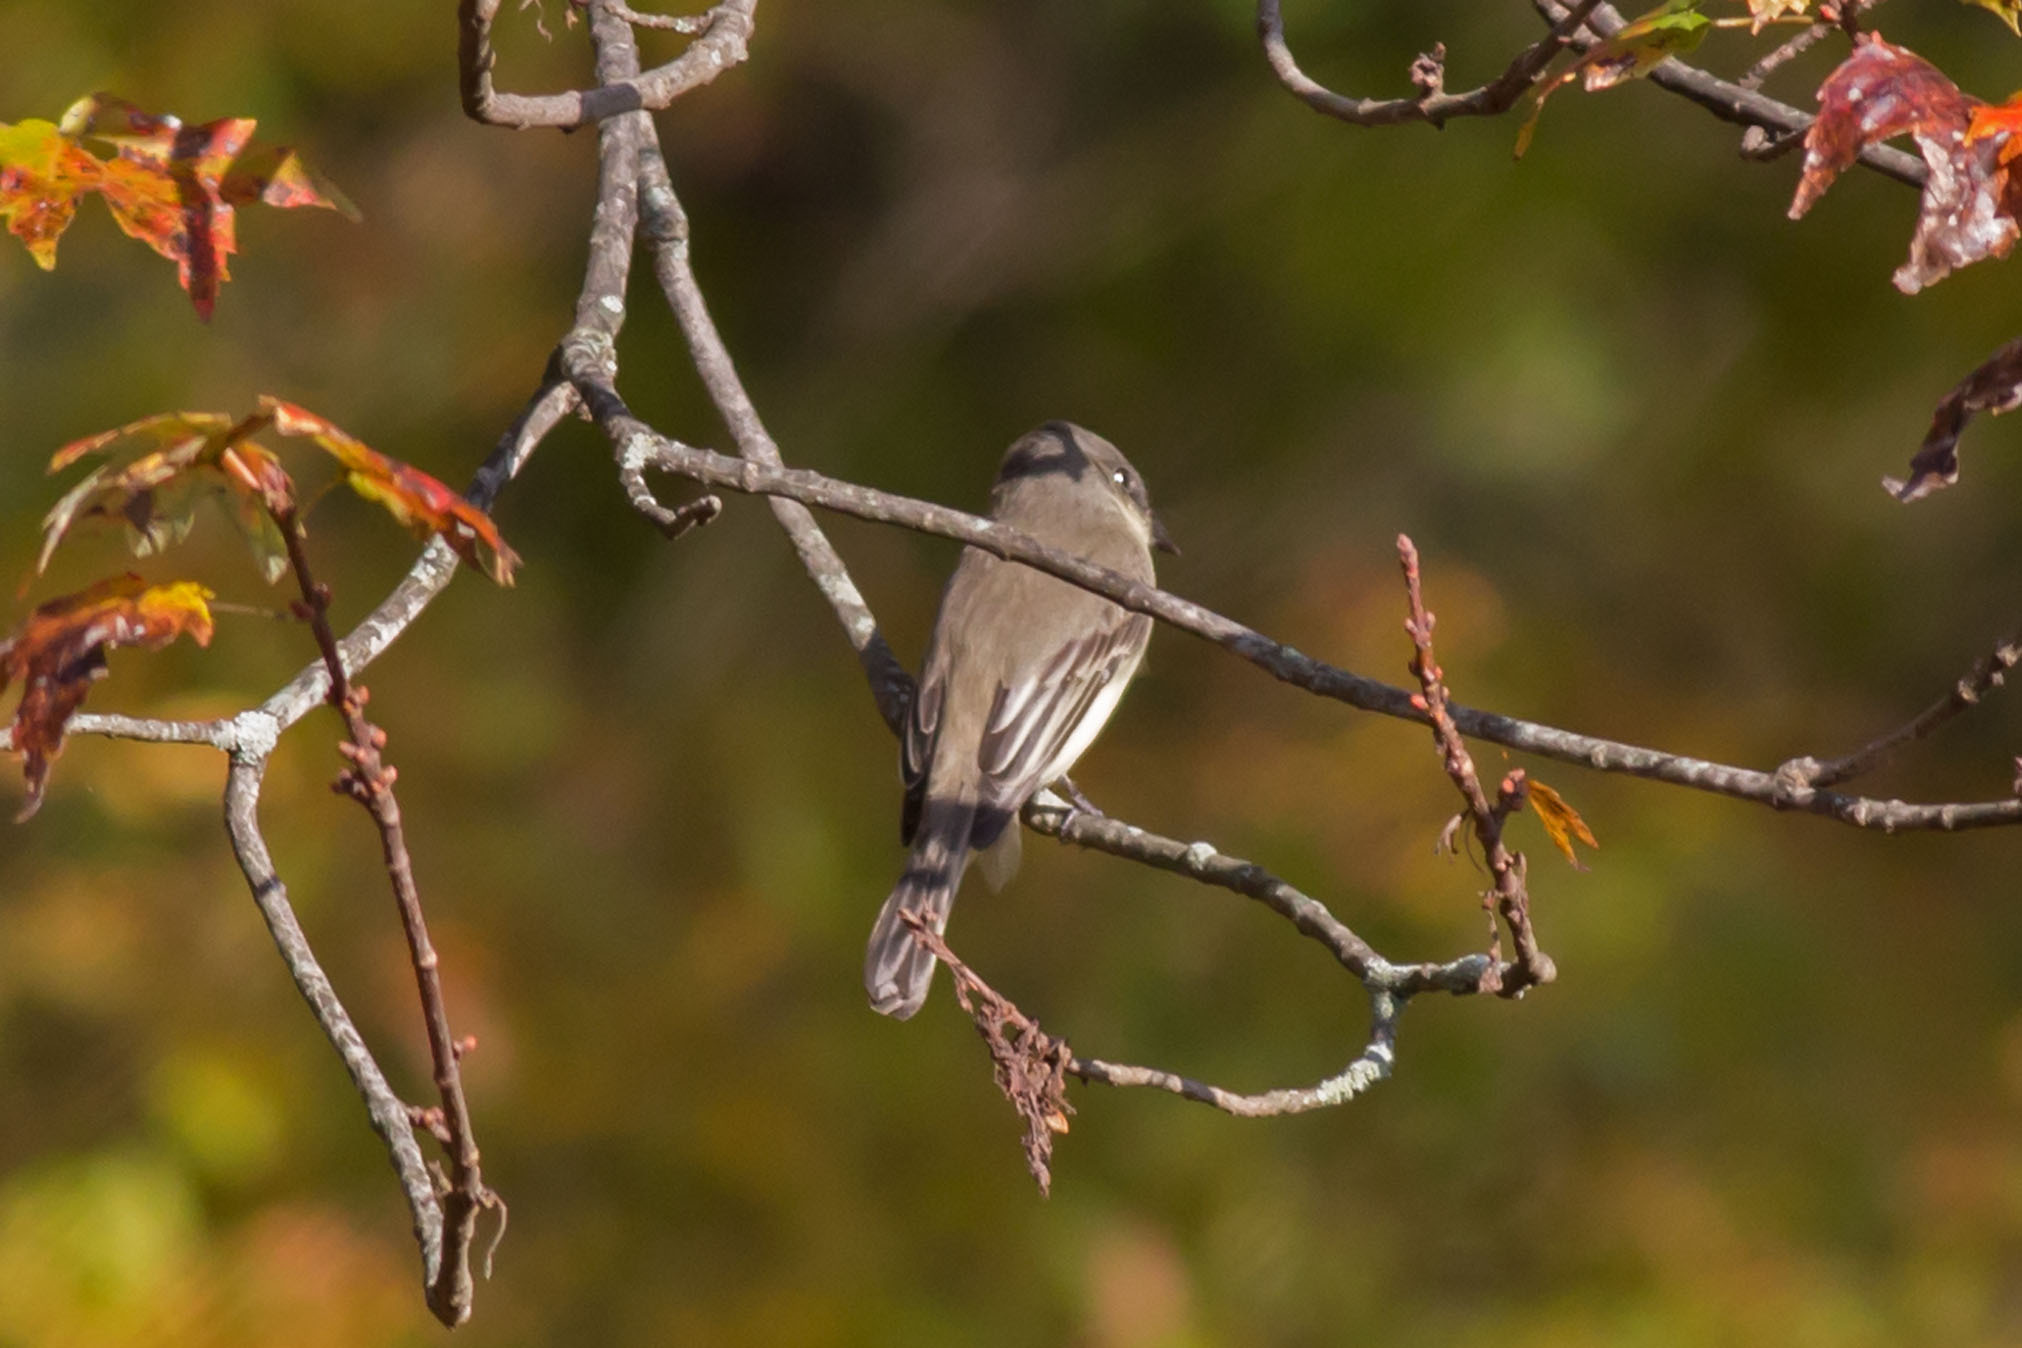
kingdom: Animalia
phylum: Chordata
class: Aves
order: Passeriformes
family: Tyrannidae
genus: Sayornis
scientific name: Sayornis phoebe
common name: Eastern phoebe
